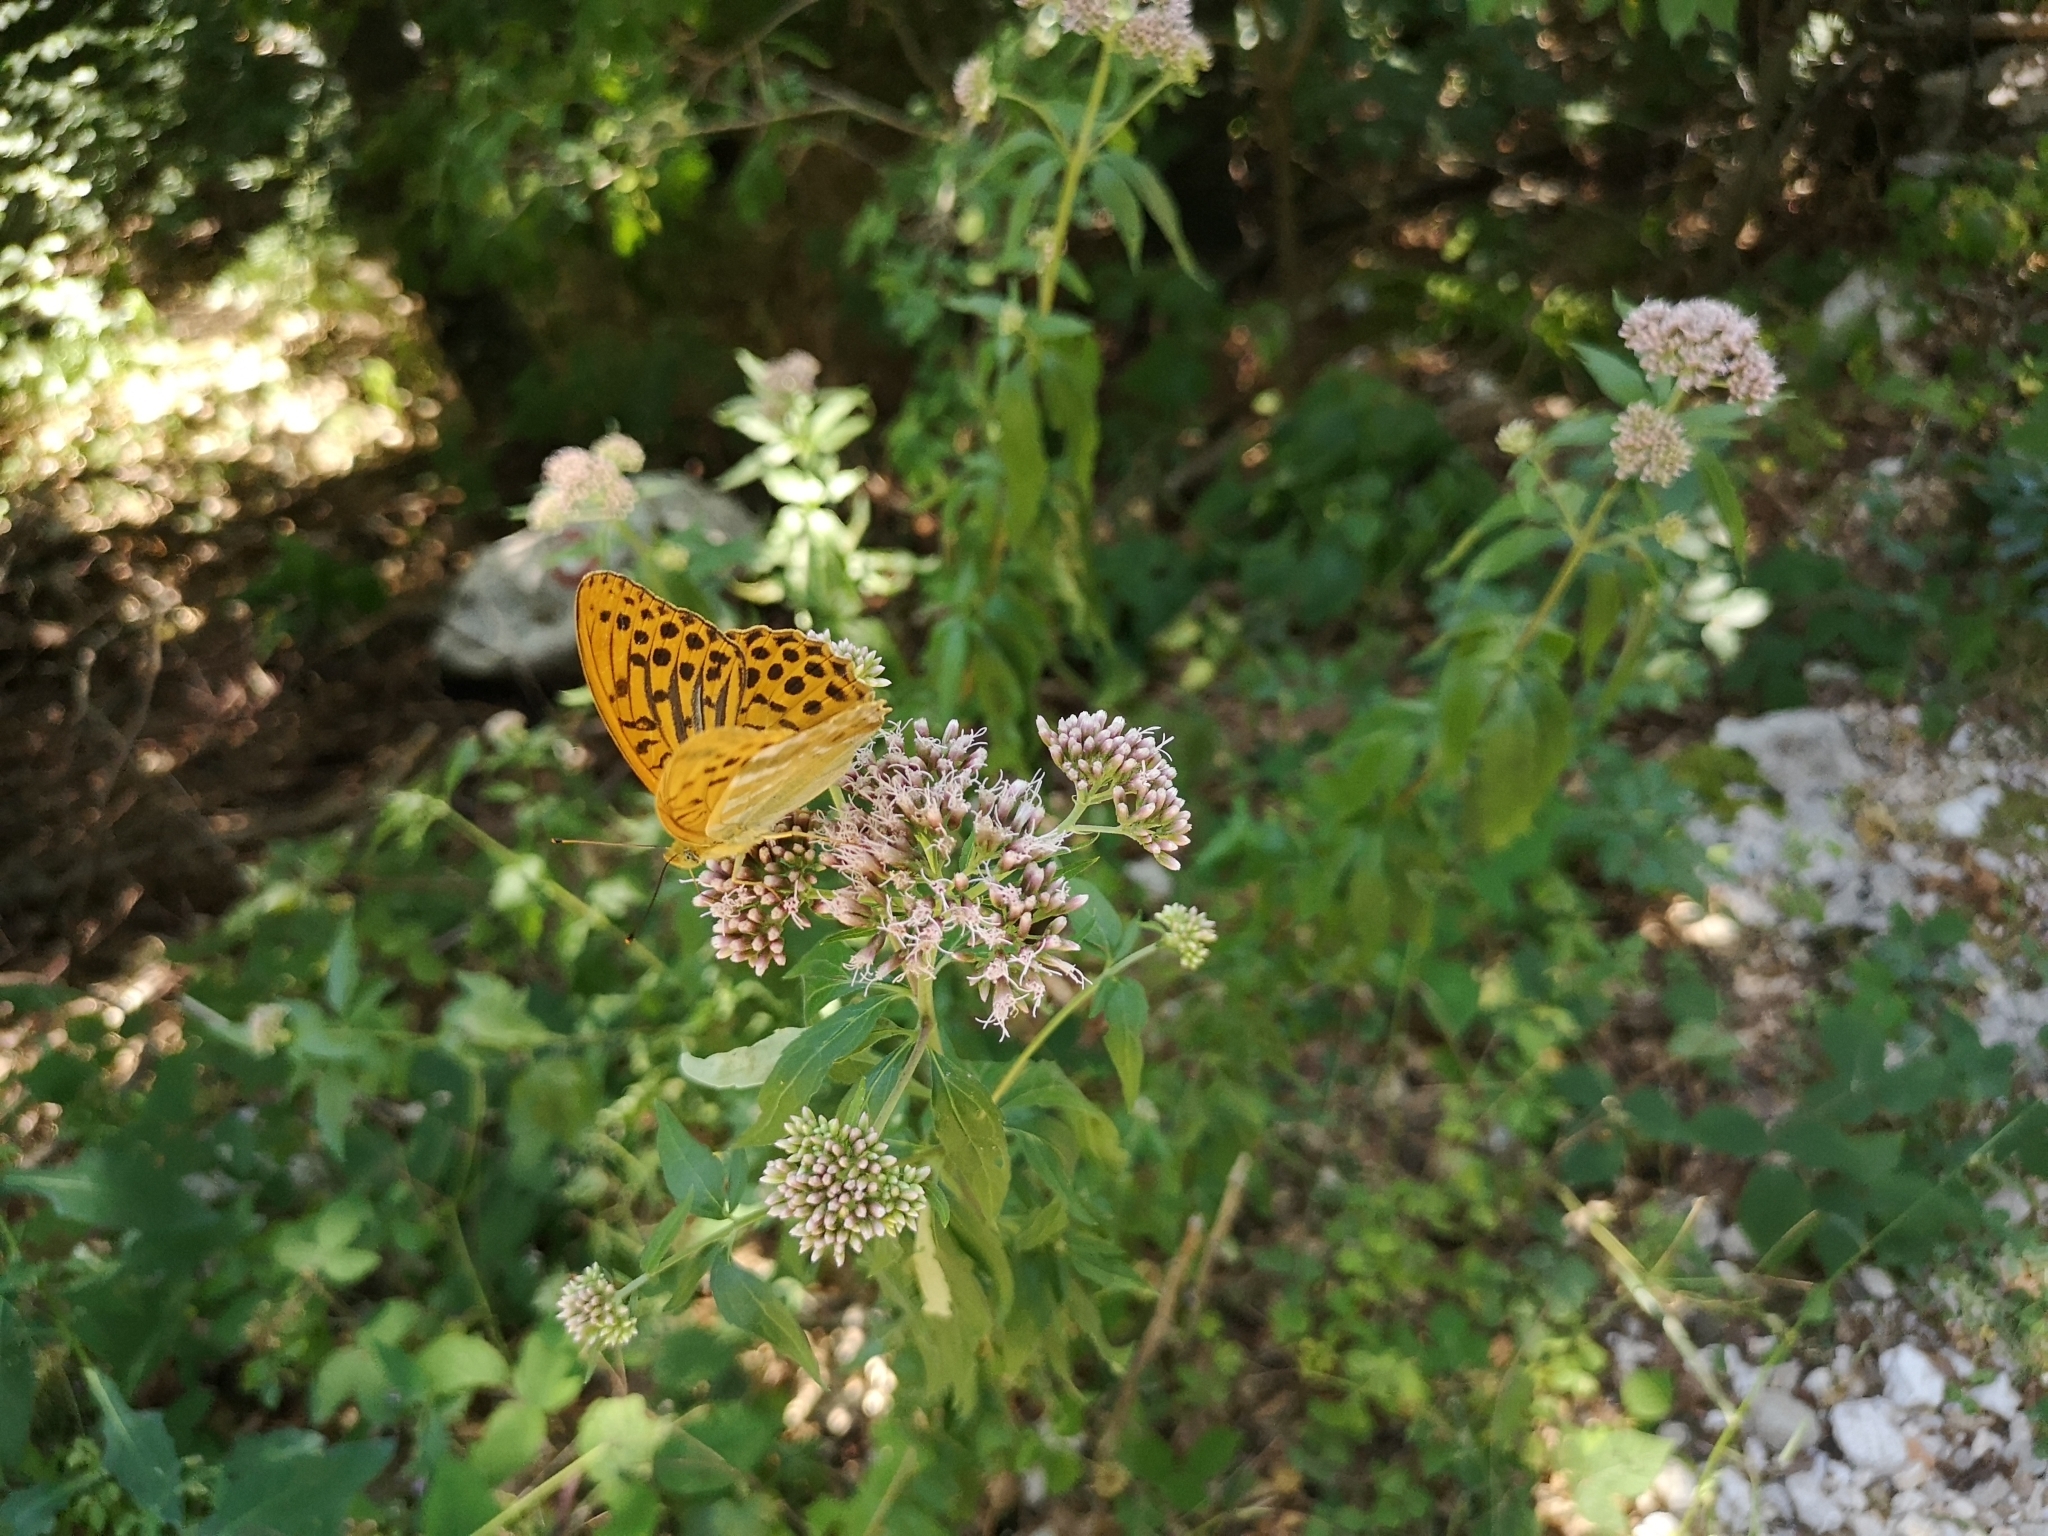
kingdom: Animalia
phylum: Arthropoda
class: Insecta
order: Lepidoptera
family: Nymphalidae
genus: Argynnis
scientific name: Argynnis paphia
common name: Silver-washed fritillary
